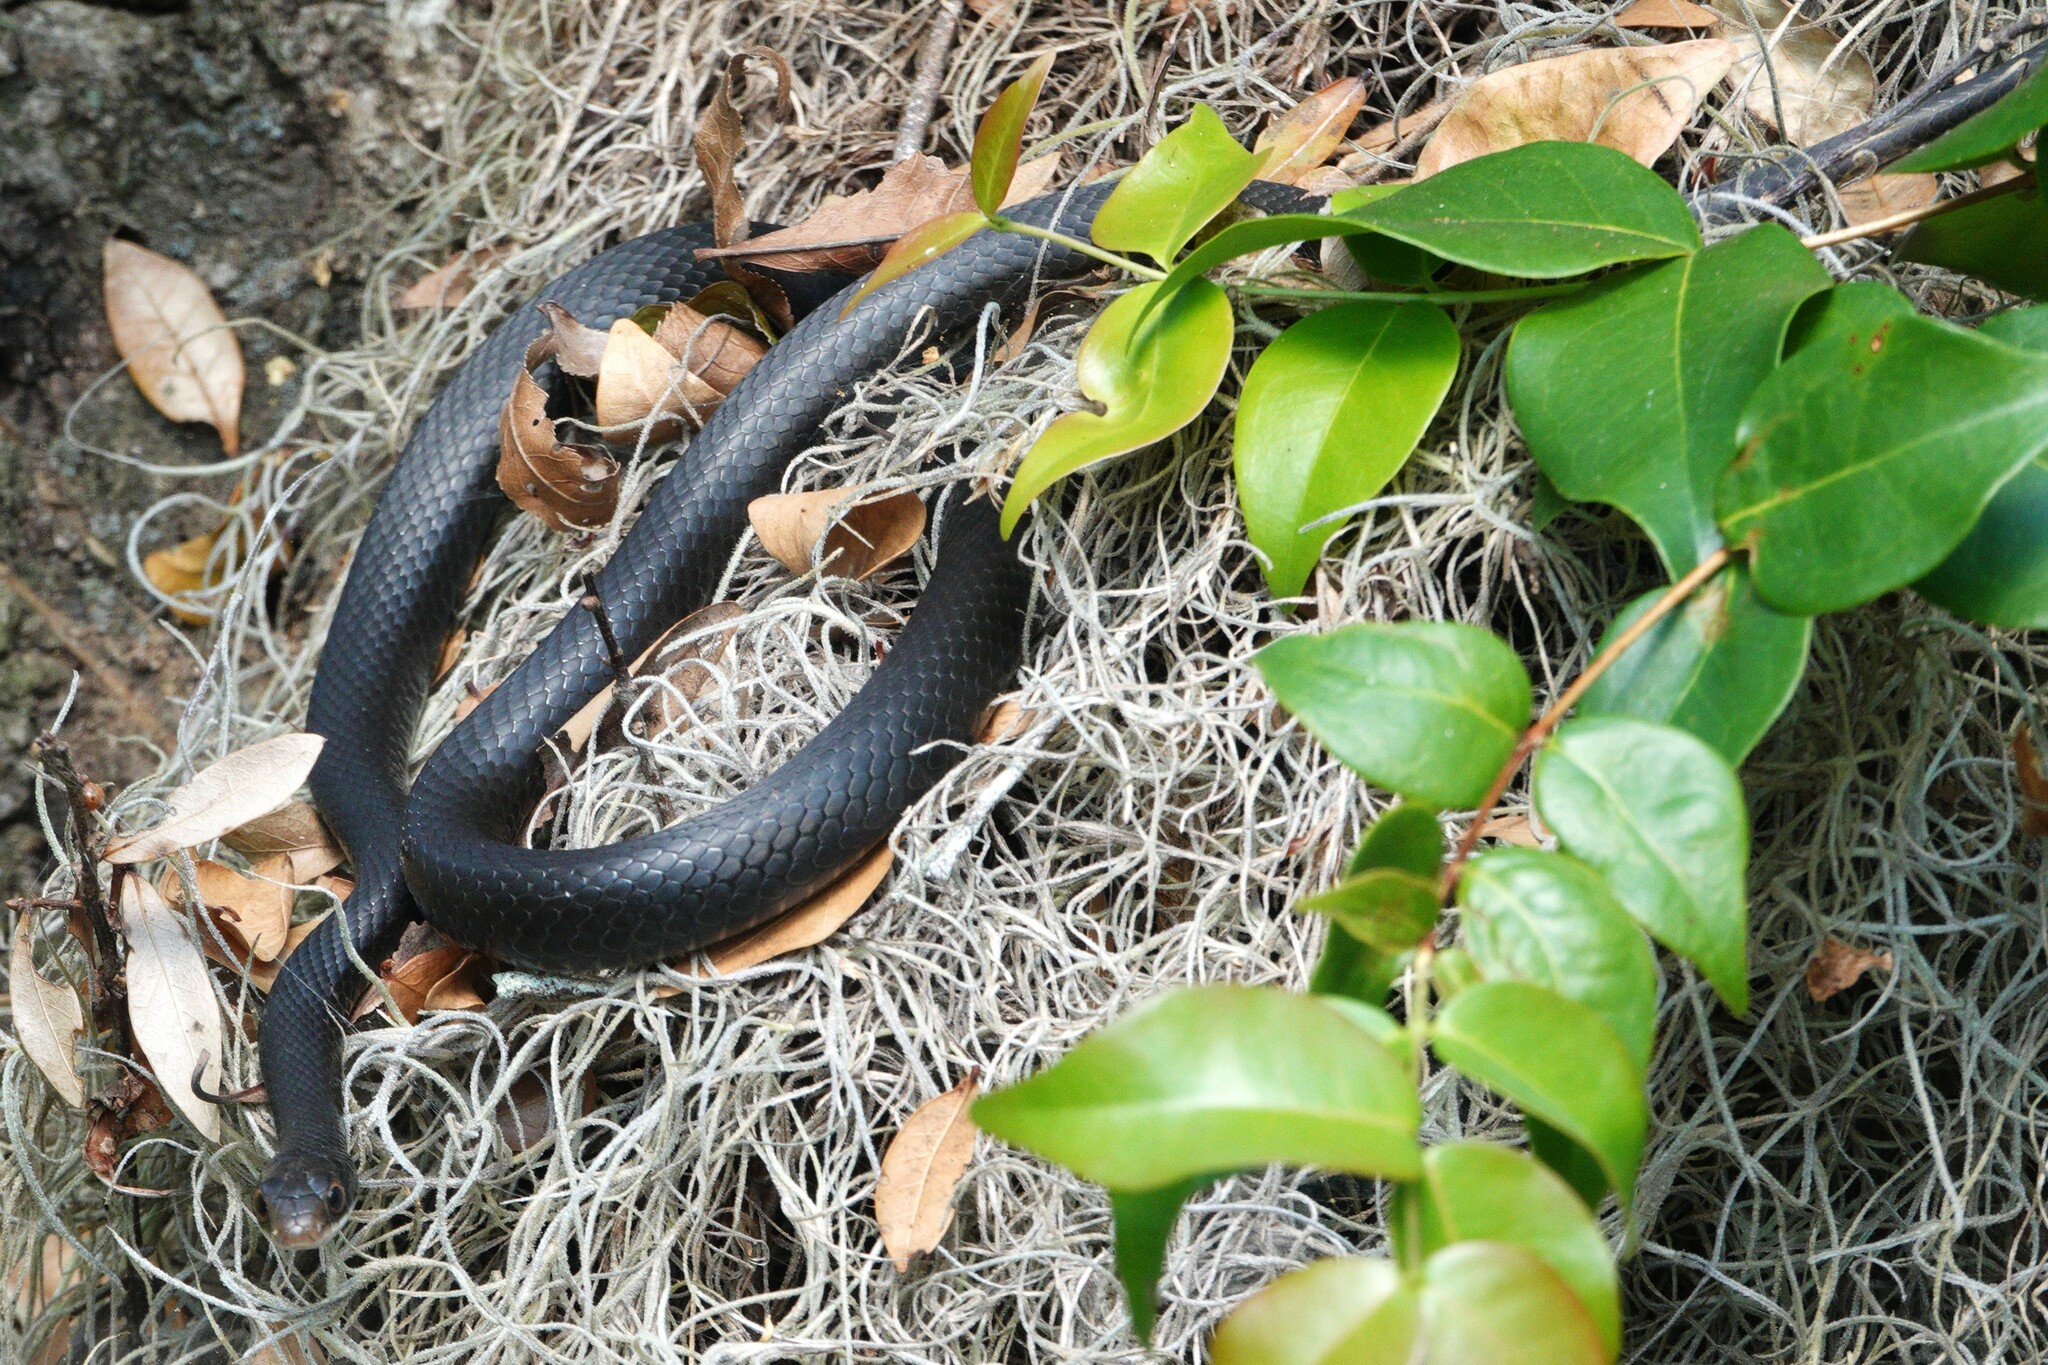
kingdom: Animalia
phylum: Chordata
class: Squamata
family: Colubridae
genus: Coluber
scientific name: Coluber constrictor
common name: Eastern racer
